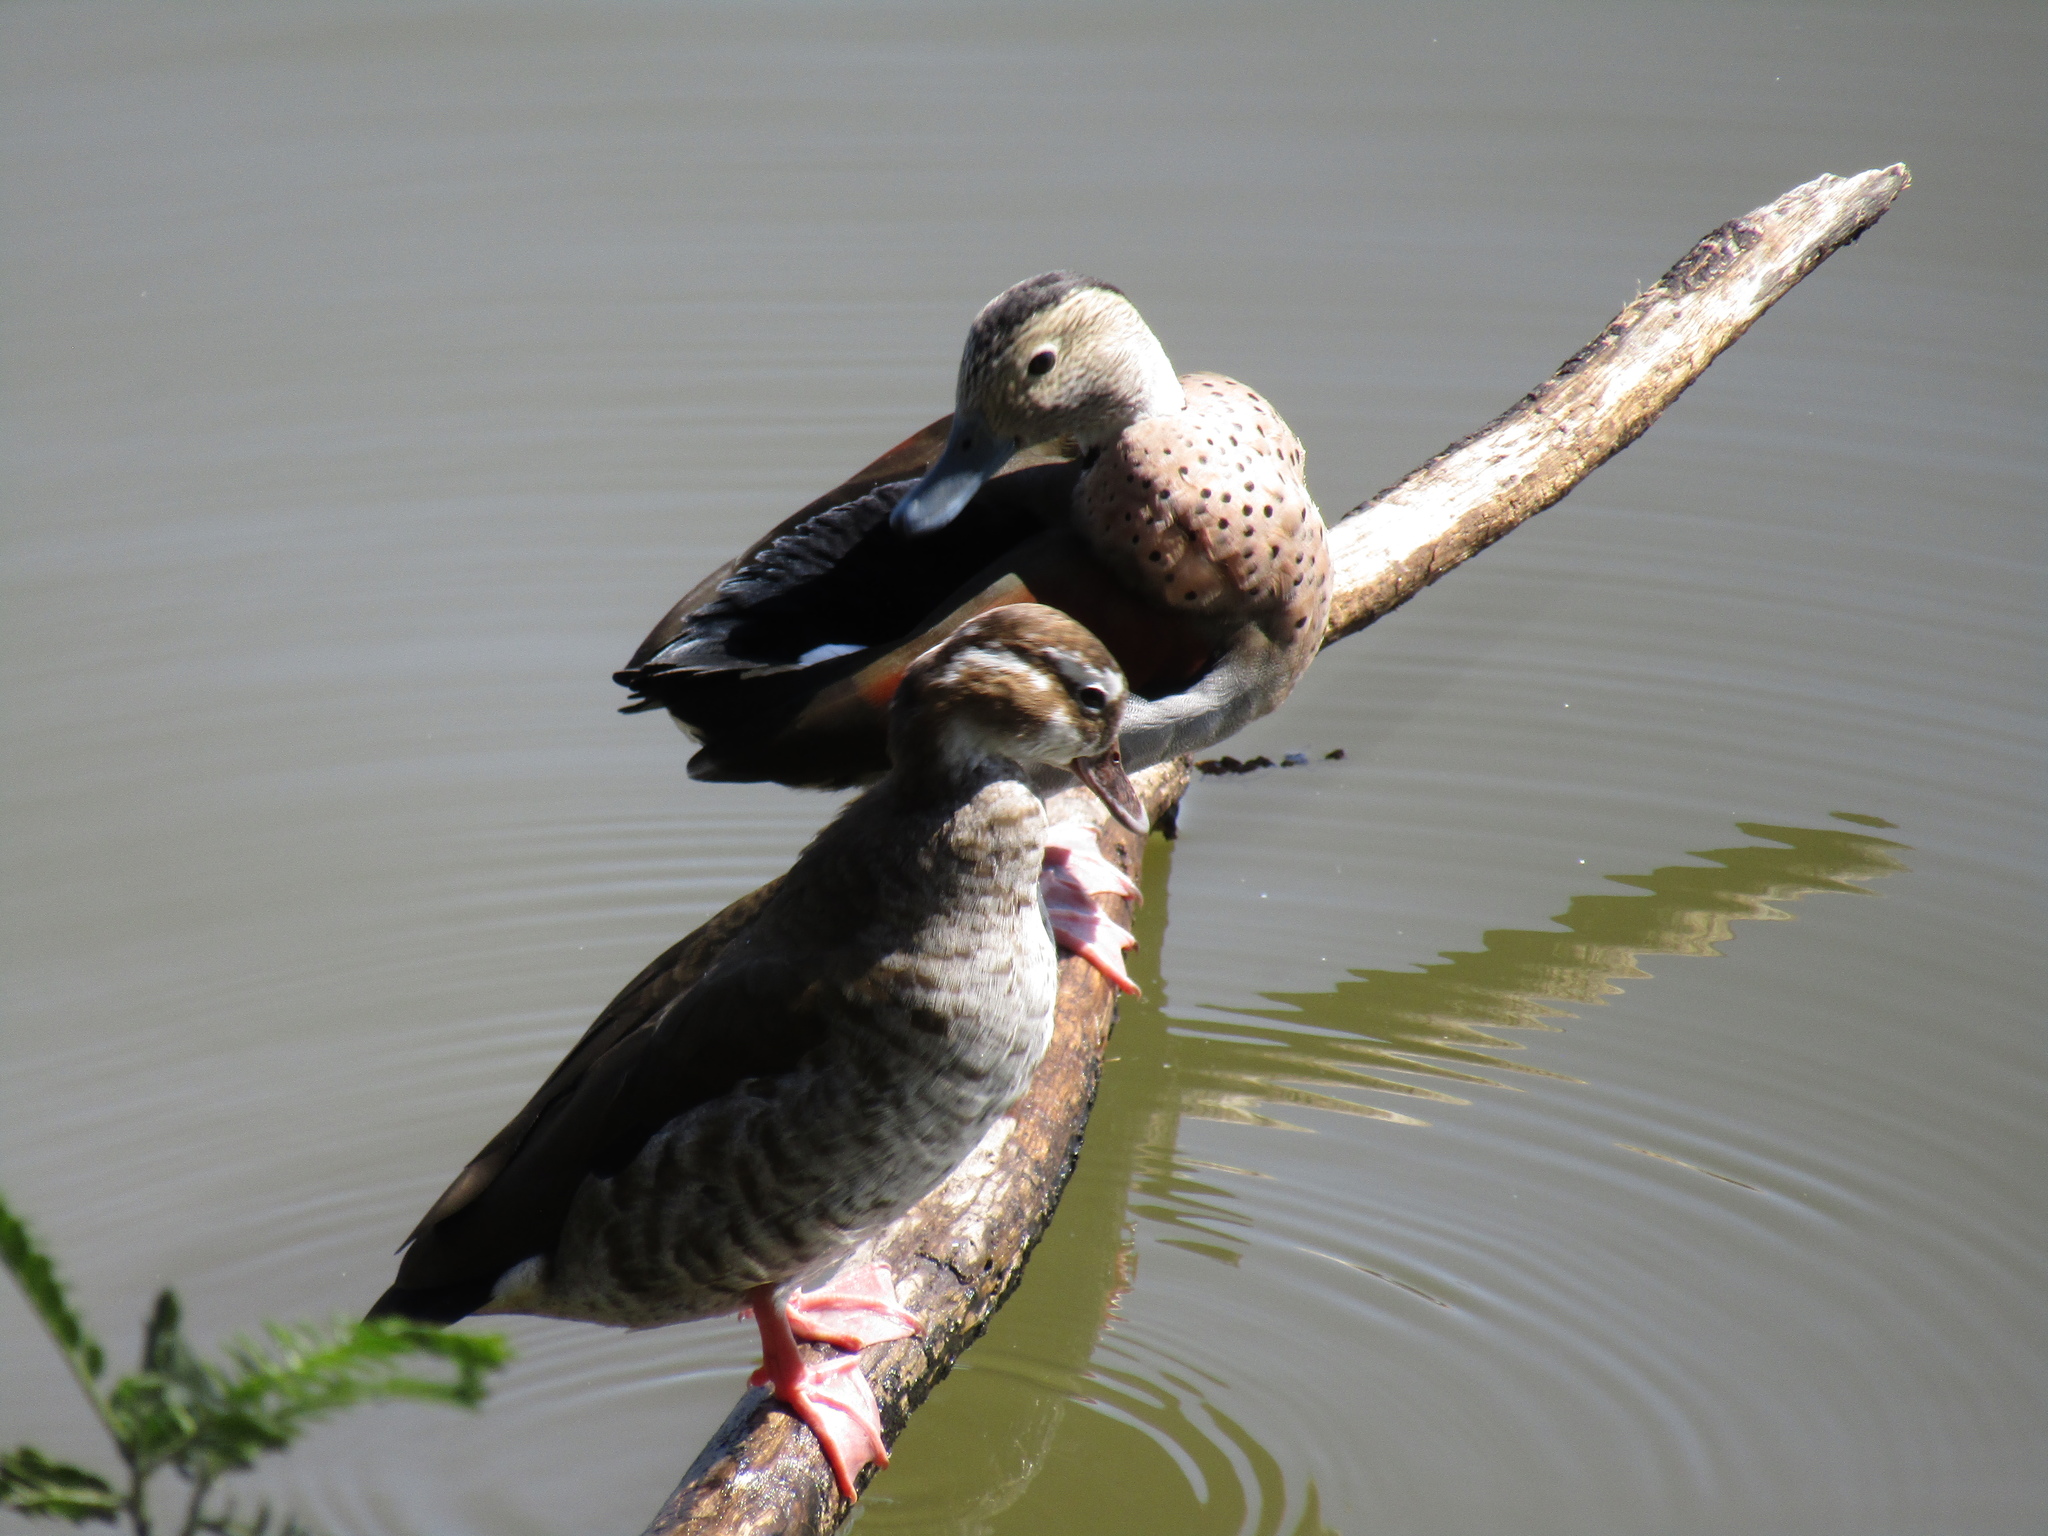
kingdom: Animalia
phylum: Chordata
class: Aves
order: Anseriformes
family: Anatidae
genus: Callonetta
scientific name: Callonetta leucophrys
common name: Ringed teal
